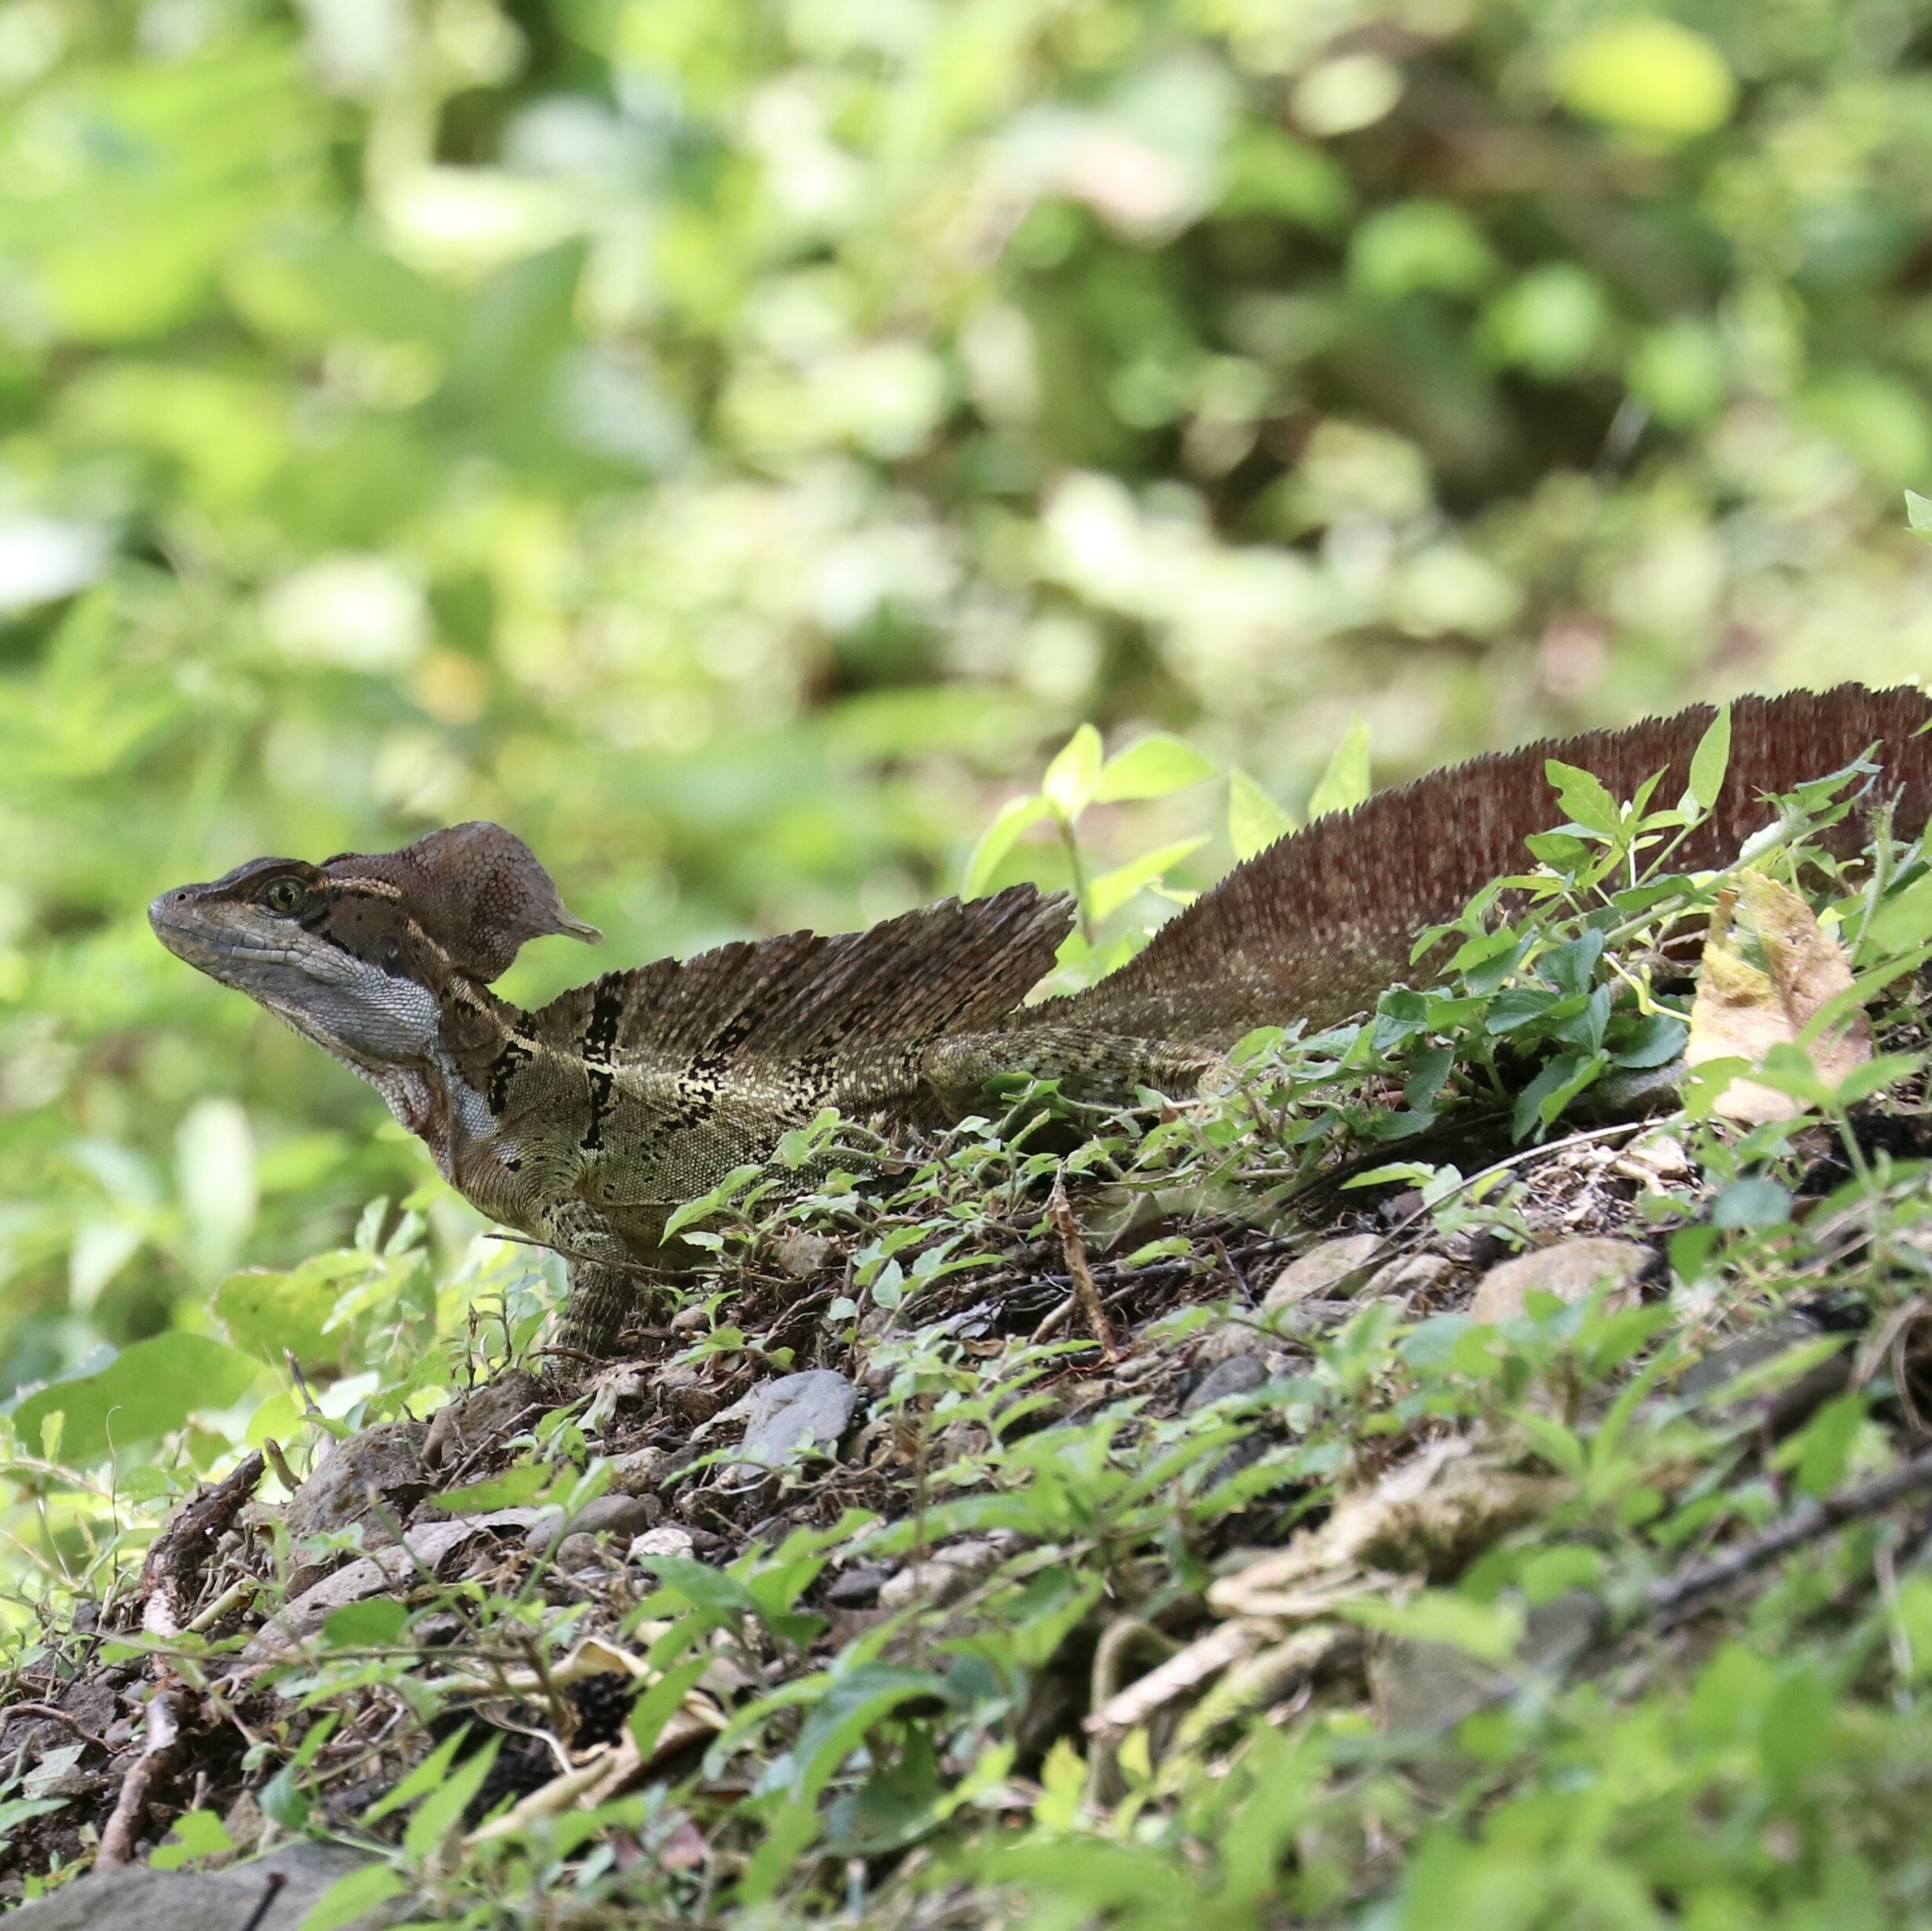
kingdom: Animalia
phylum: Chordata
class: Squamata
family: Corytophanidae
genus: Basiliscus
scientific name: Basiliscus basiliscus
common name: Common basilisk
